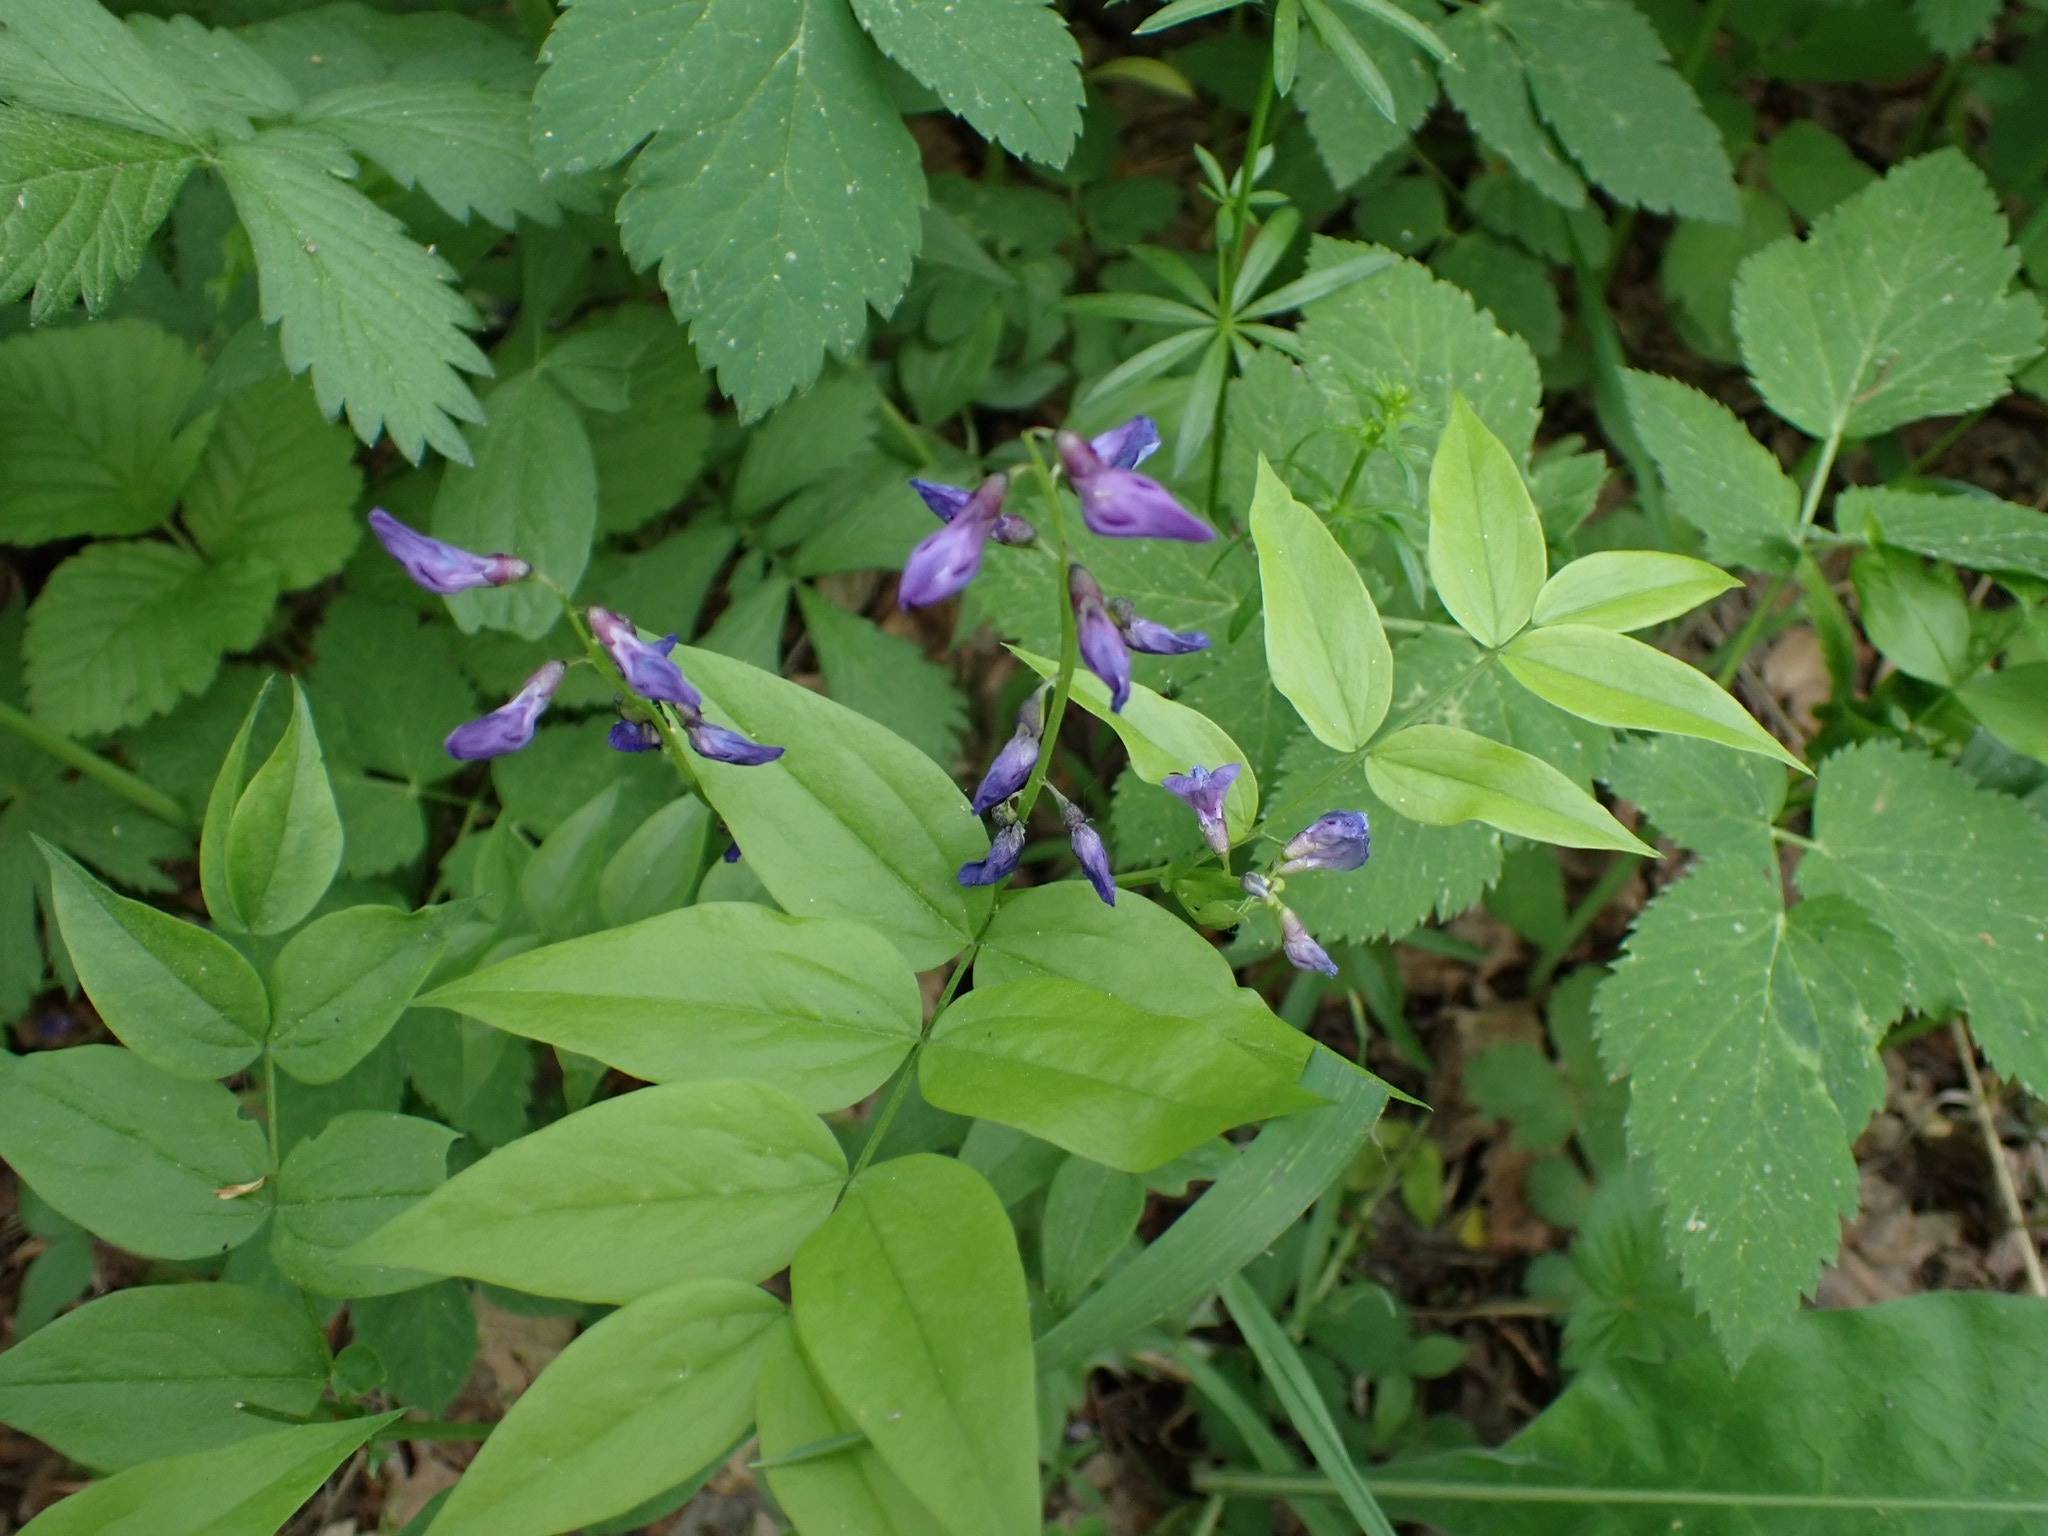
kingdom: Plantae
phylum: Tracheophyta
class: Magnoliopsida
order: Fabales
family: Fabaceae
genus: Lathyrus
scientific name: Lathyrus vernus
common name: Spring pea
